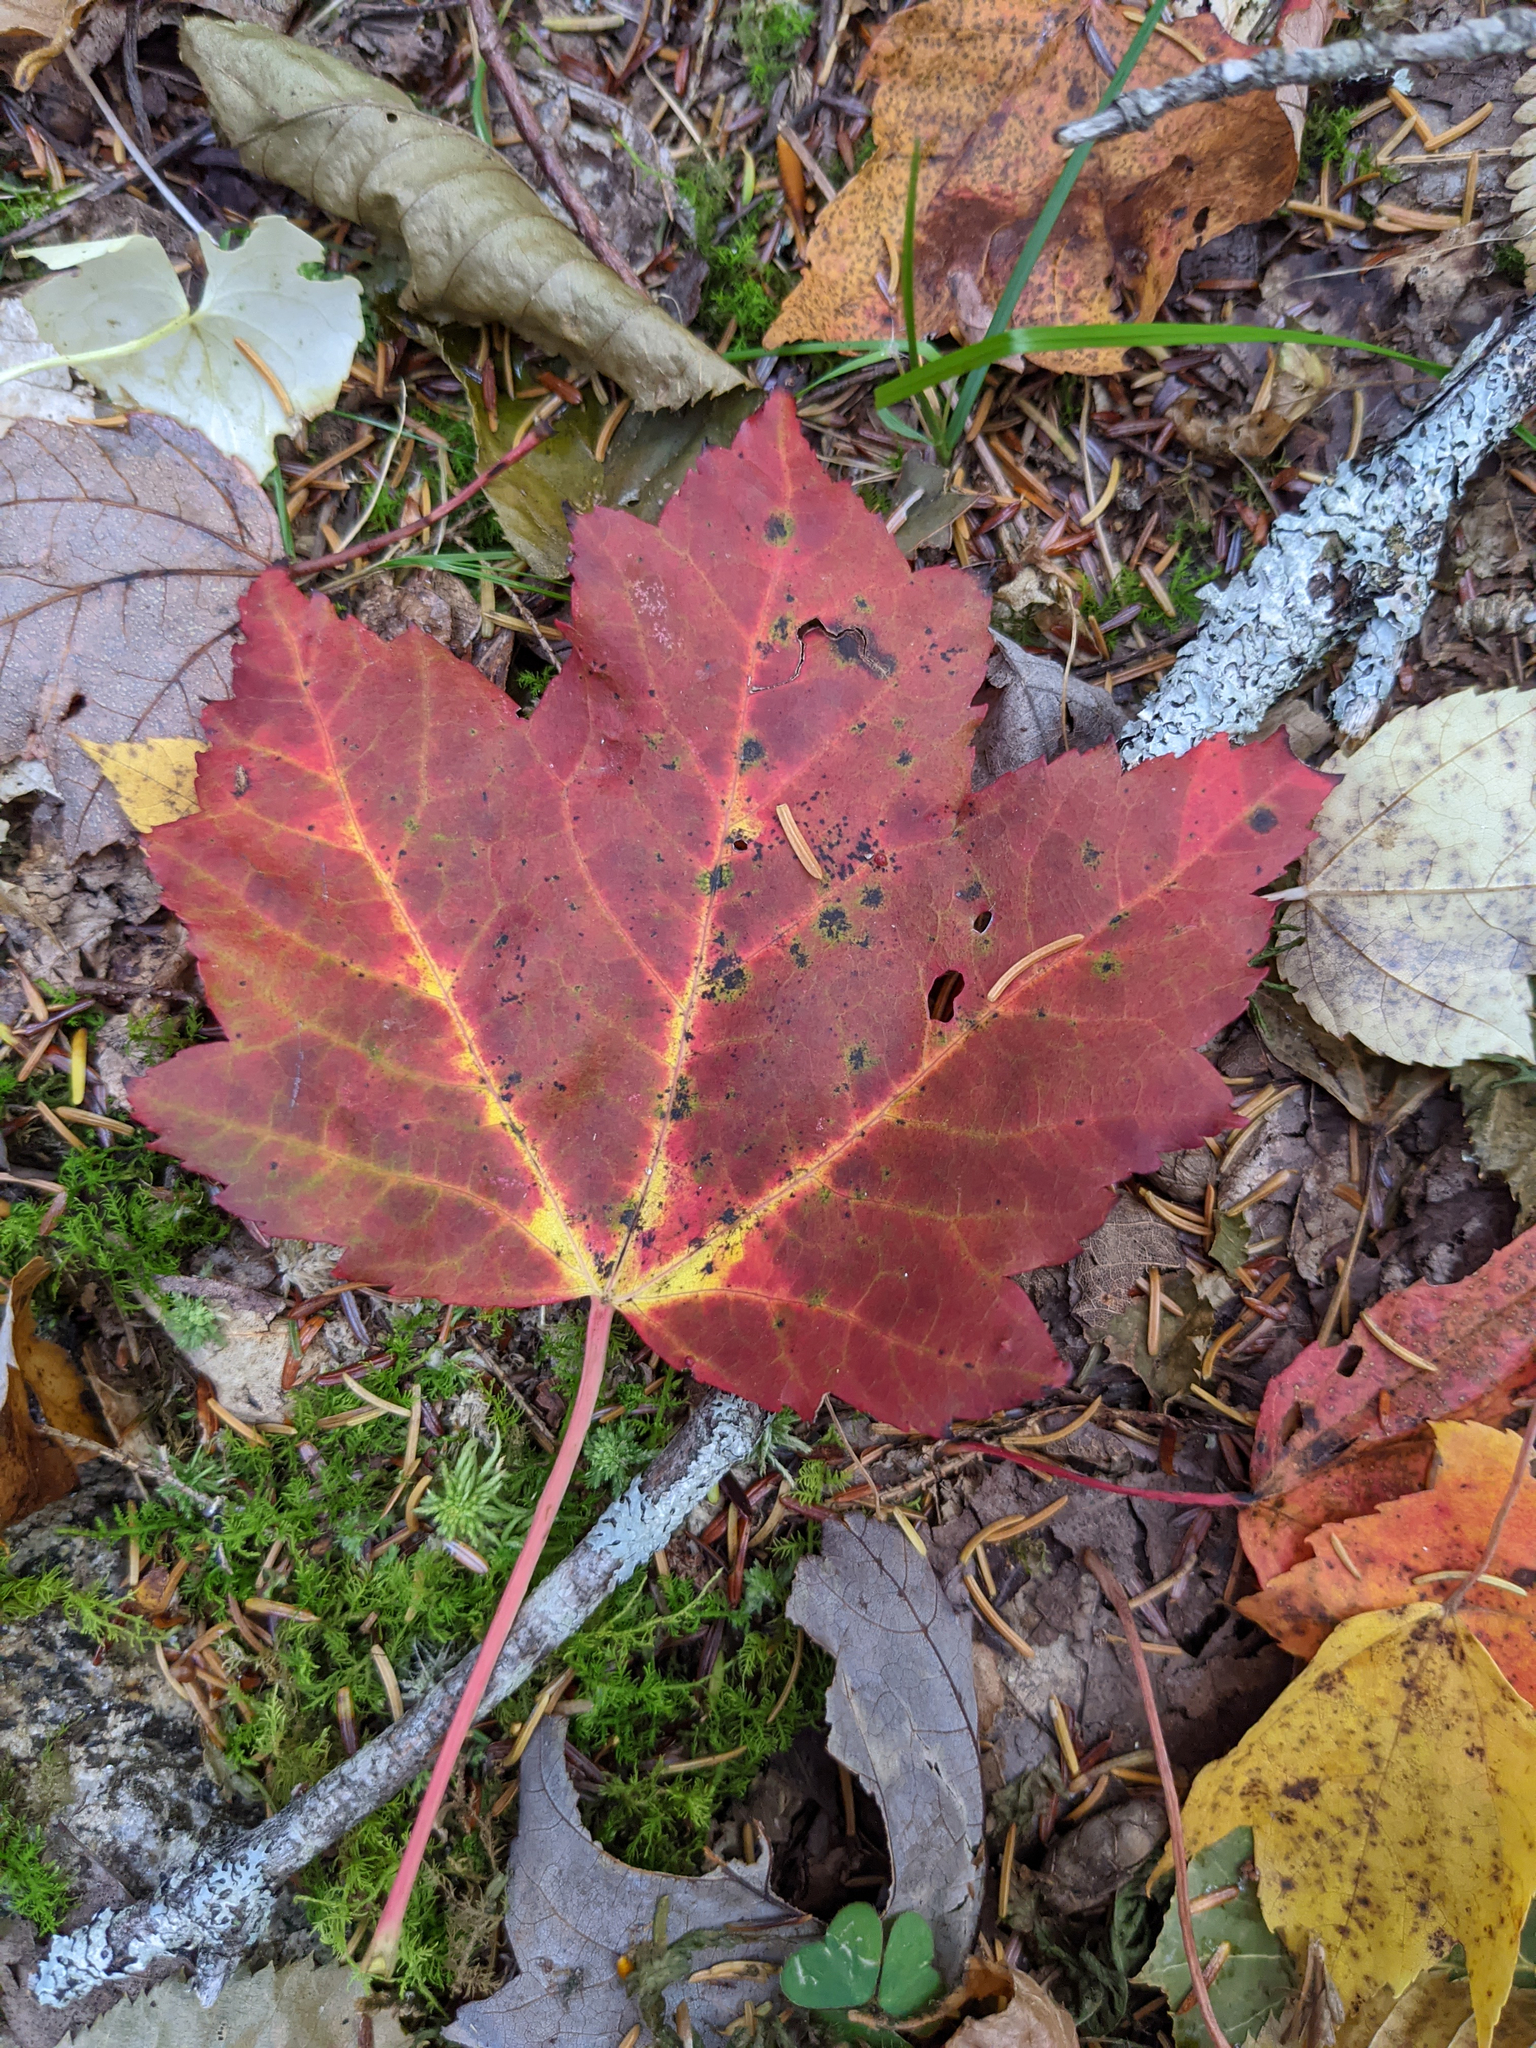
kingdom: Plantae
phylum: Tracheophyta
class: Magnoliopsida
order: Sapindales
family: Sapindaceae
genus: Acer
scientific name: Acer rubrum
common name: Red maple
